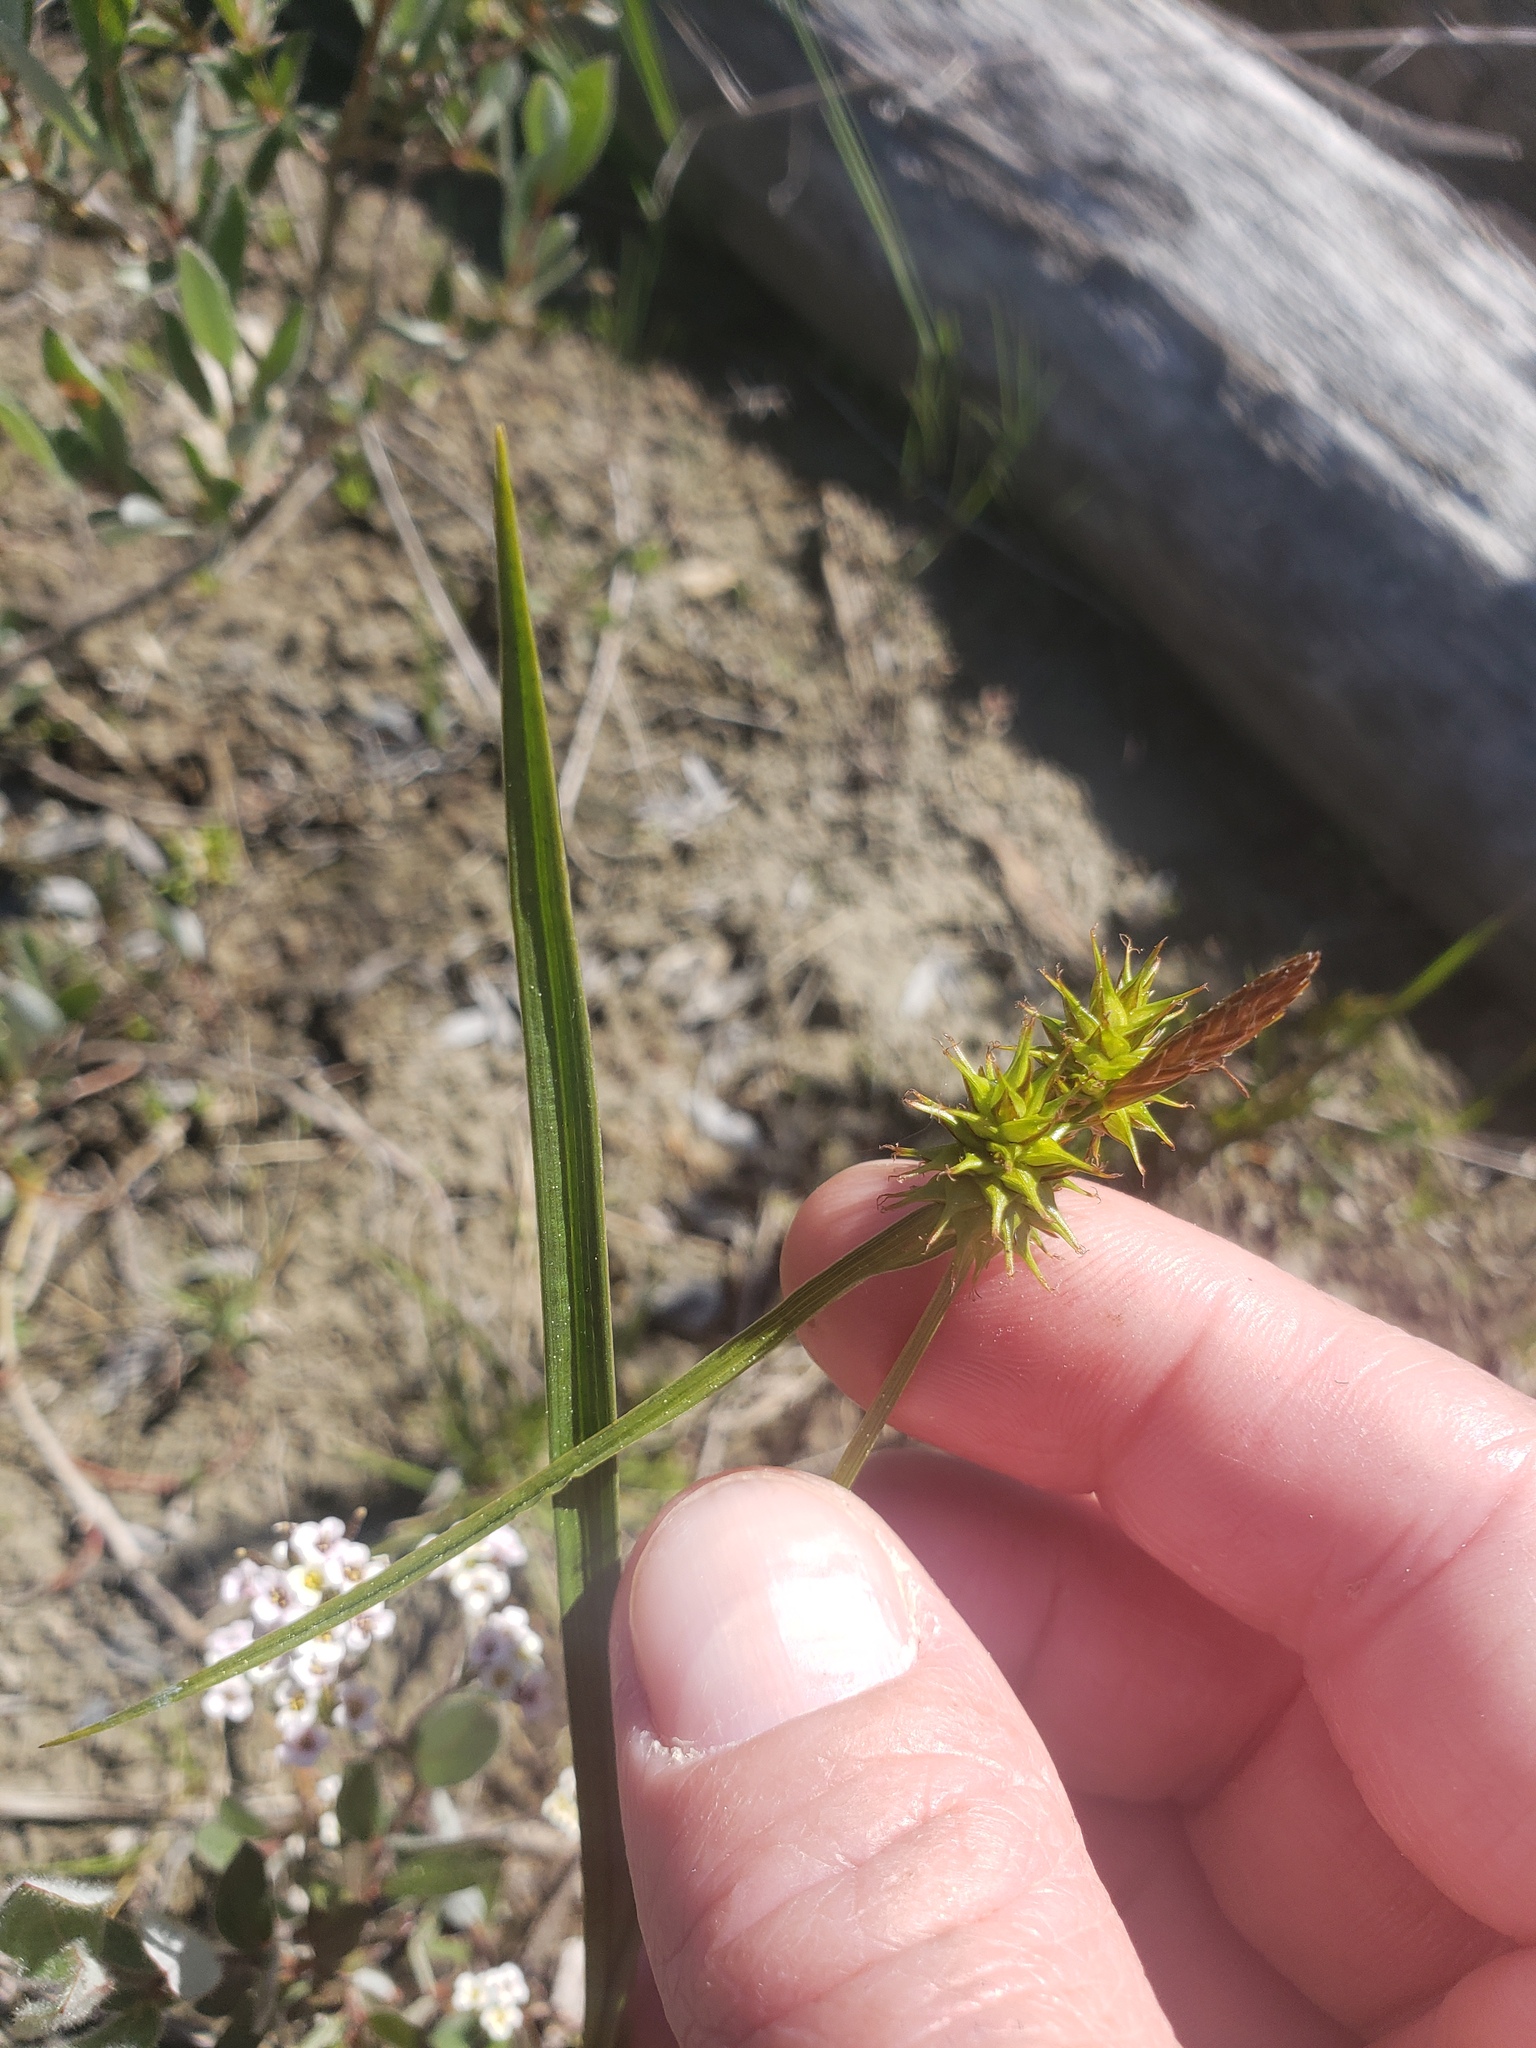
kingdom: Plantae
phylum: Tracheophyta
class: Liliopsida
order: Poales
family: Cyperaceae
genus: Carex
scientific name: Carex flava
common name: Large yellow-sedge
